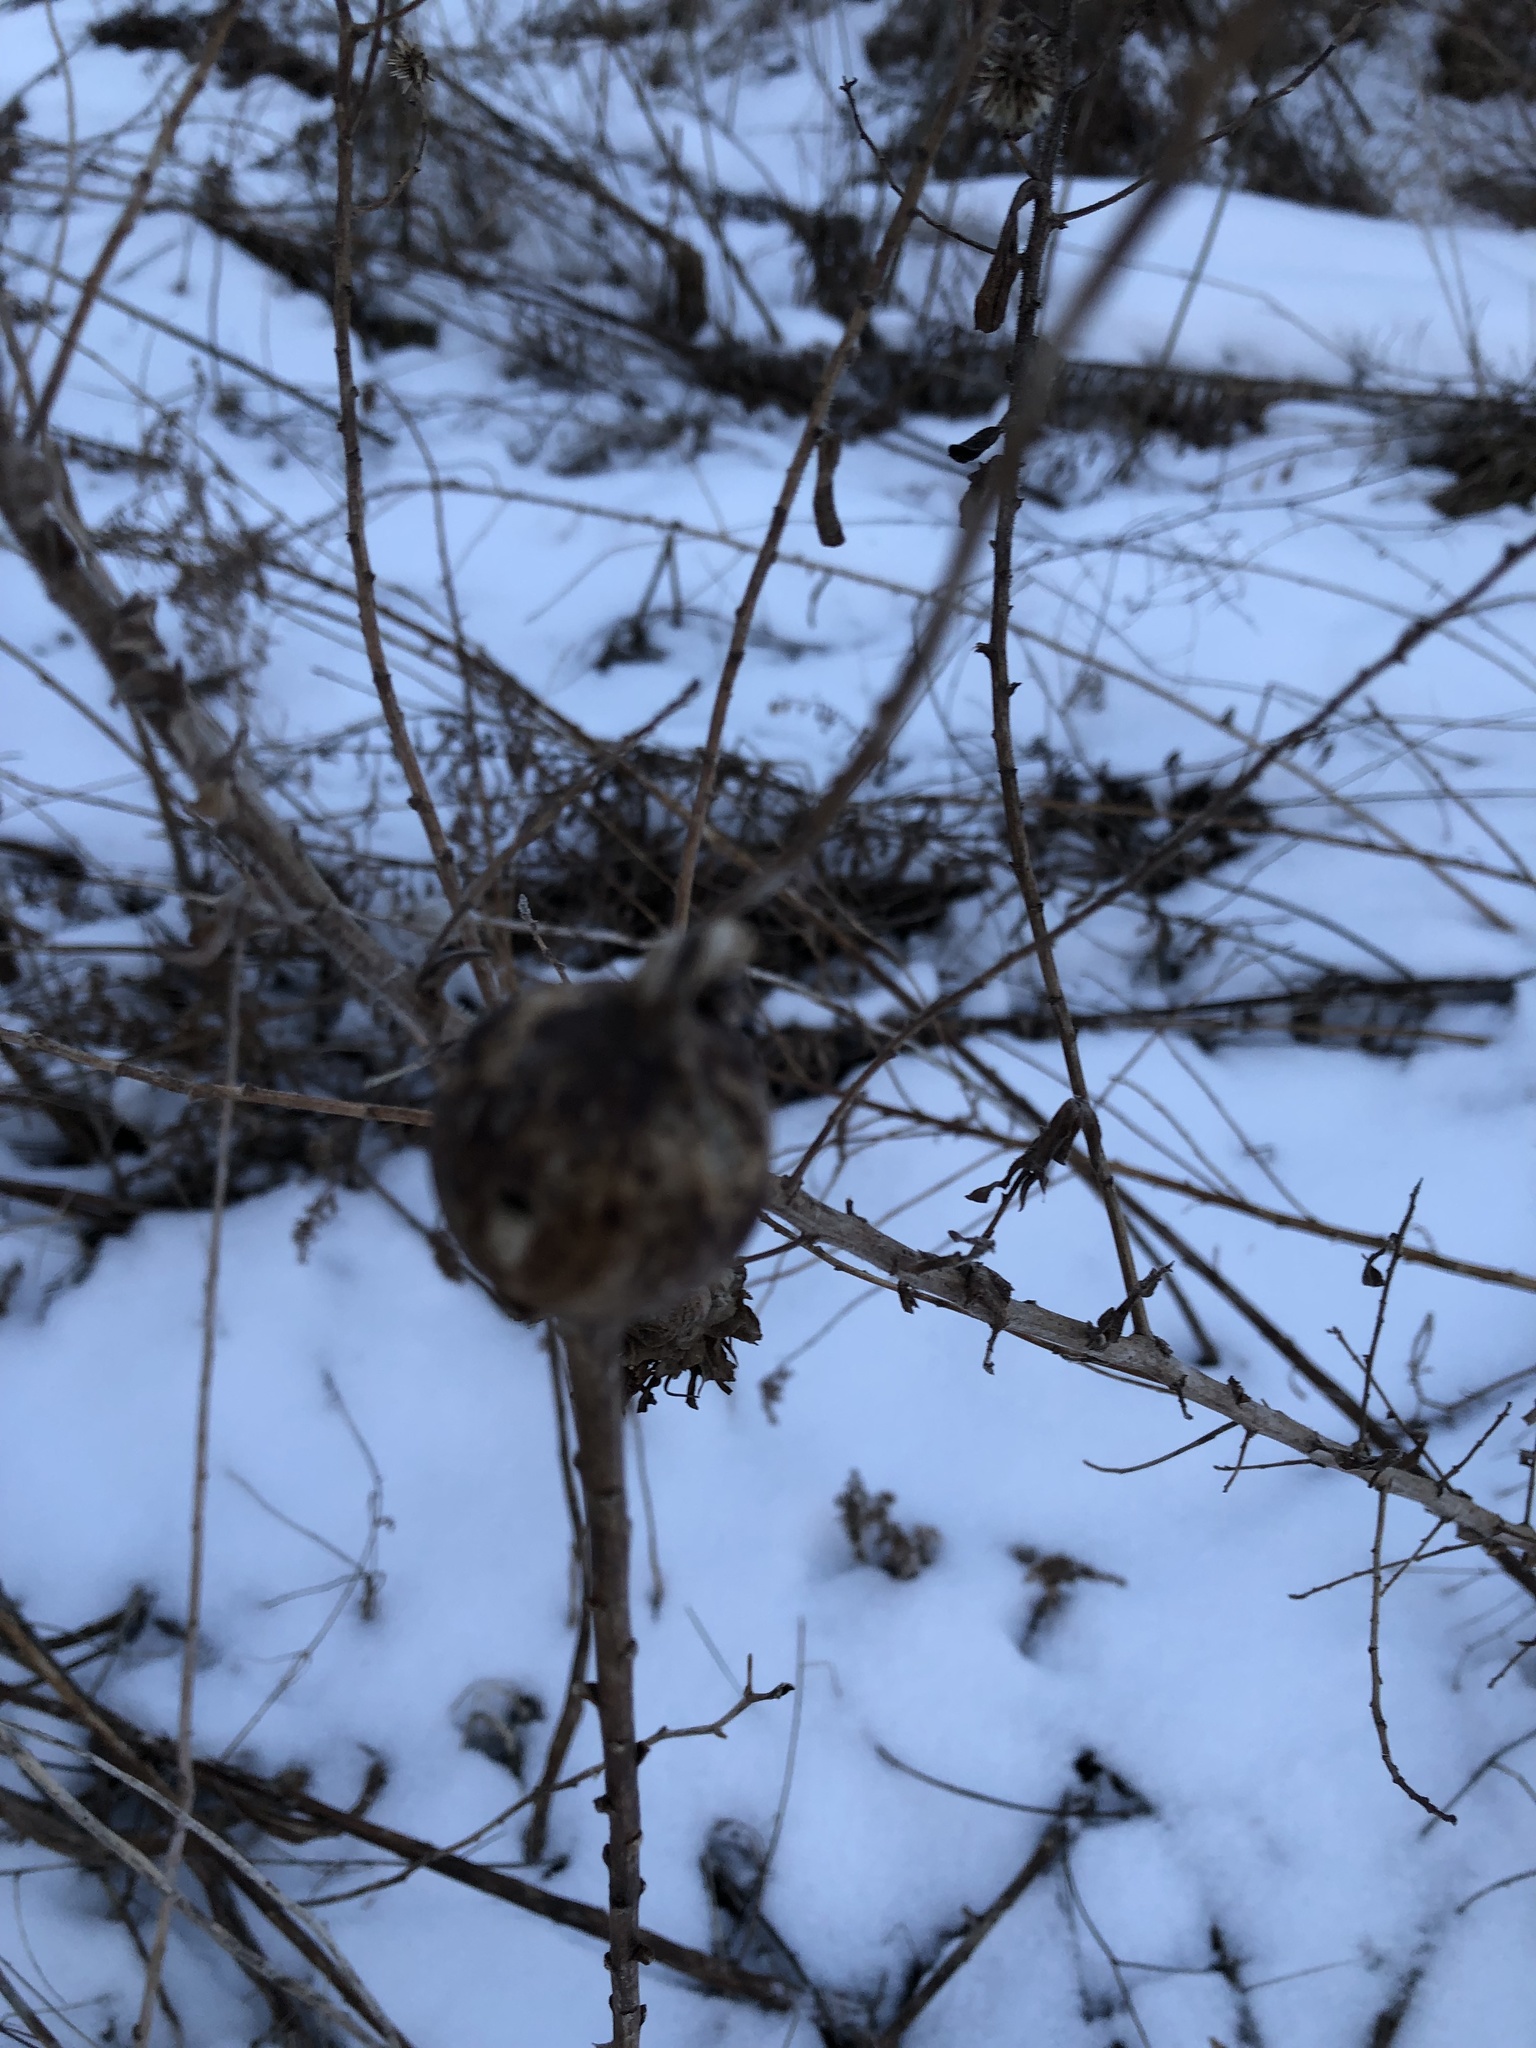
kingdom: Animalia
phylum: Arthropoda
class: Insecta
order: Diptera
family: Tephritidae
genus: Eurosta
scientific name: Eurosta solidaginis
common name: Goldenrod gall fly
